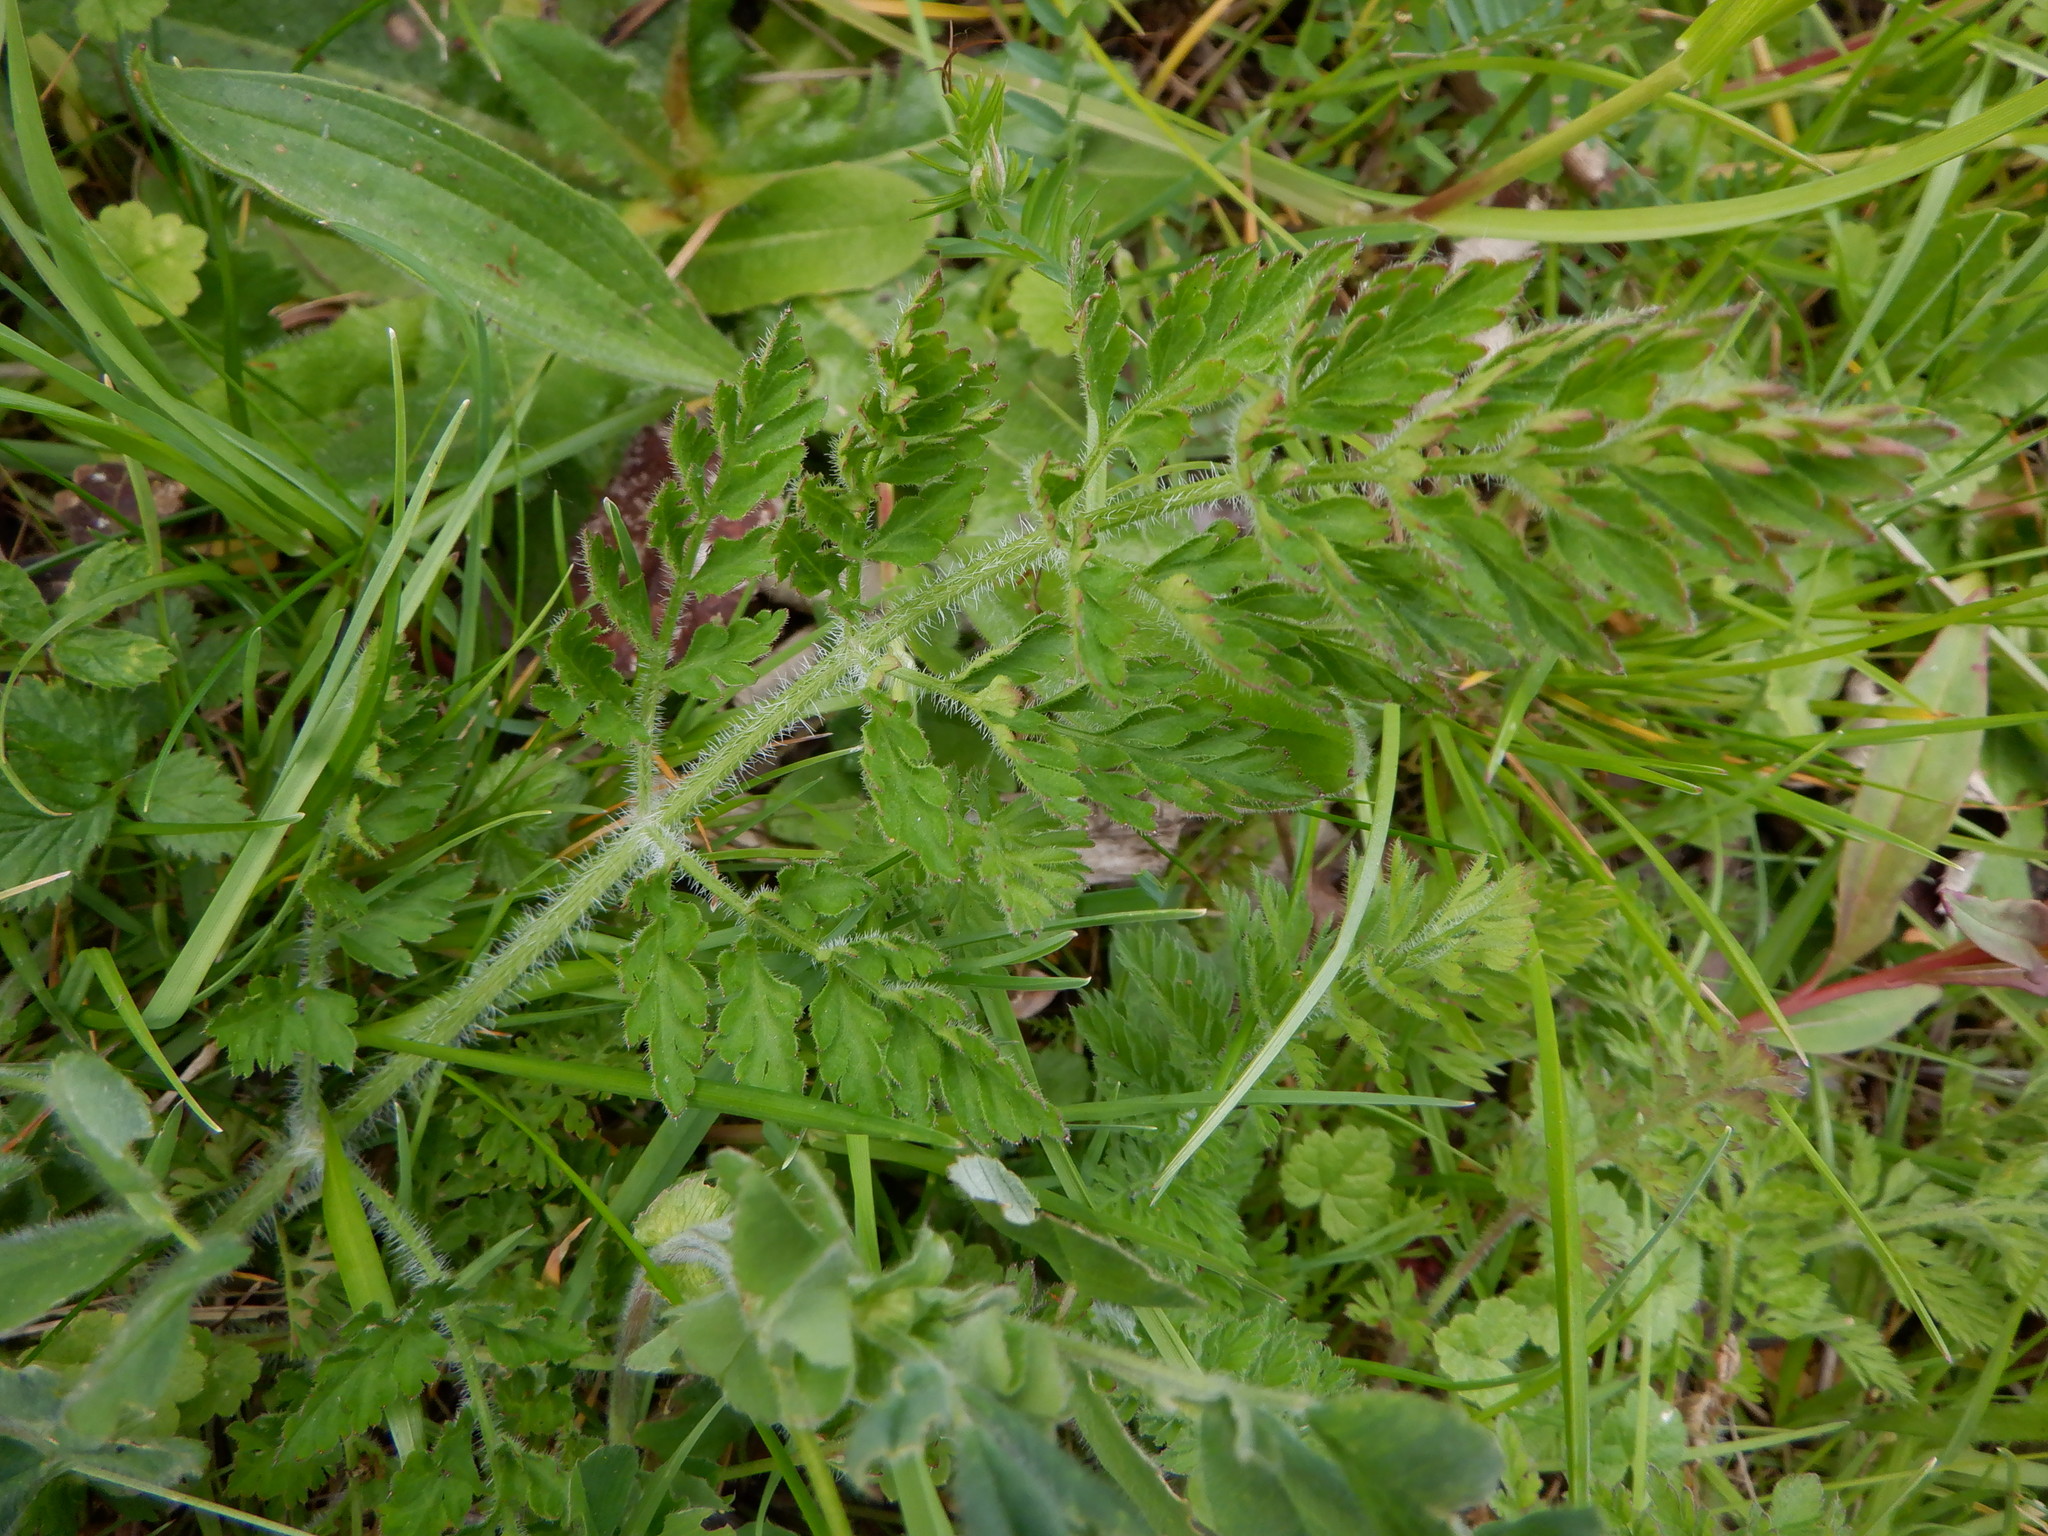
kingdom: Plantae
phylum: Tracheophyta
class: Magnoliopsida
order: Apiales
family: Apiaceae
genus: Daucus
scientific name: Daucus carota
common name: Wild carrot
